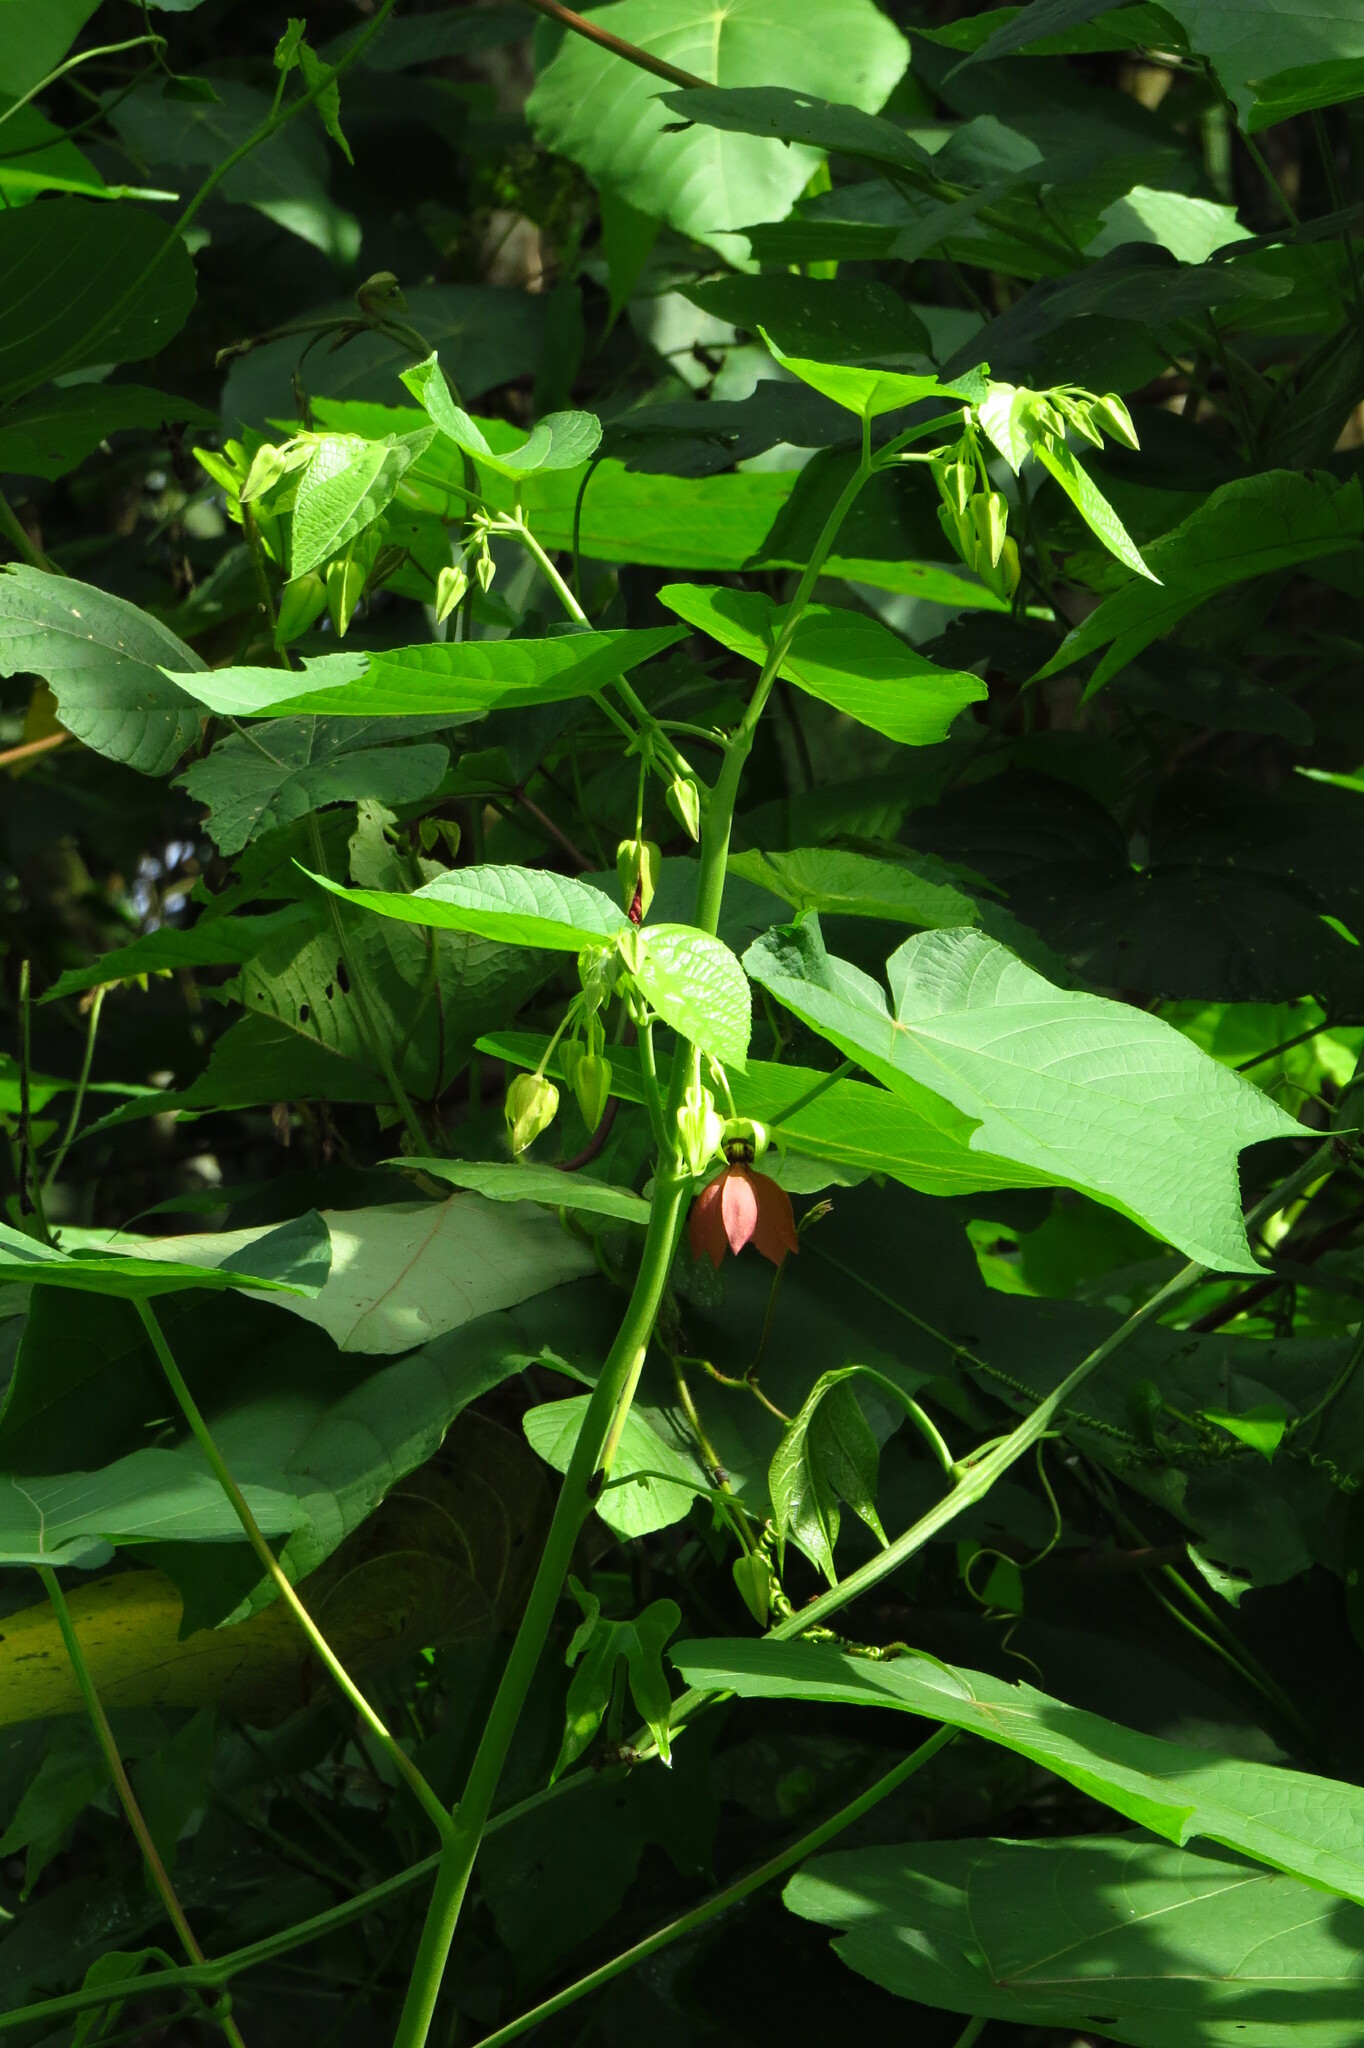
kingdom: Plantae
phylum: Tracheophyta
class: Magnoliopsida
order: Malvales
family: Malvaceae
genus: Abroma
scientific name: Abroma augustum
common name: Devil's-cotton
